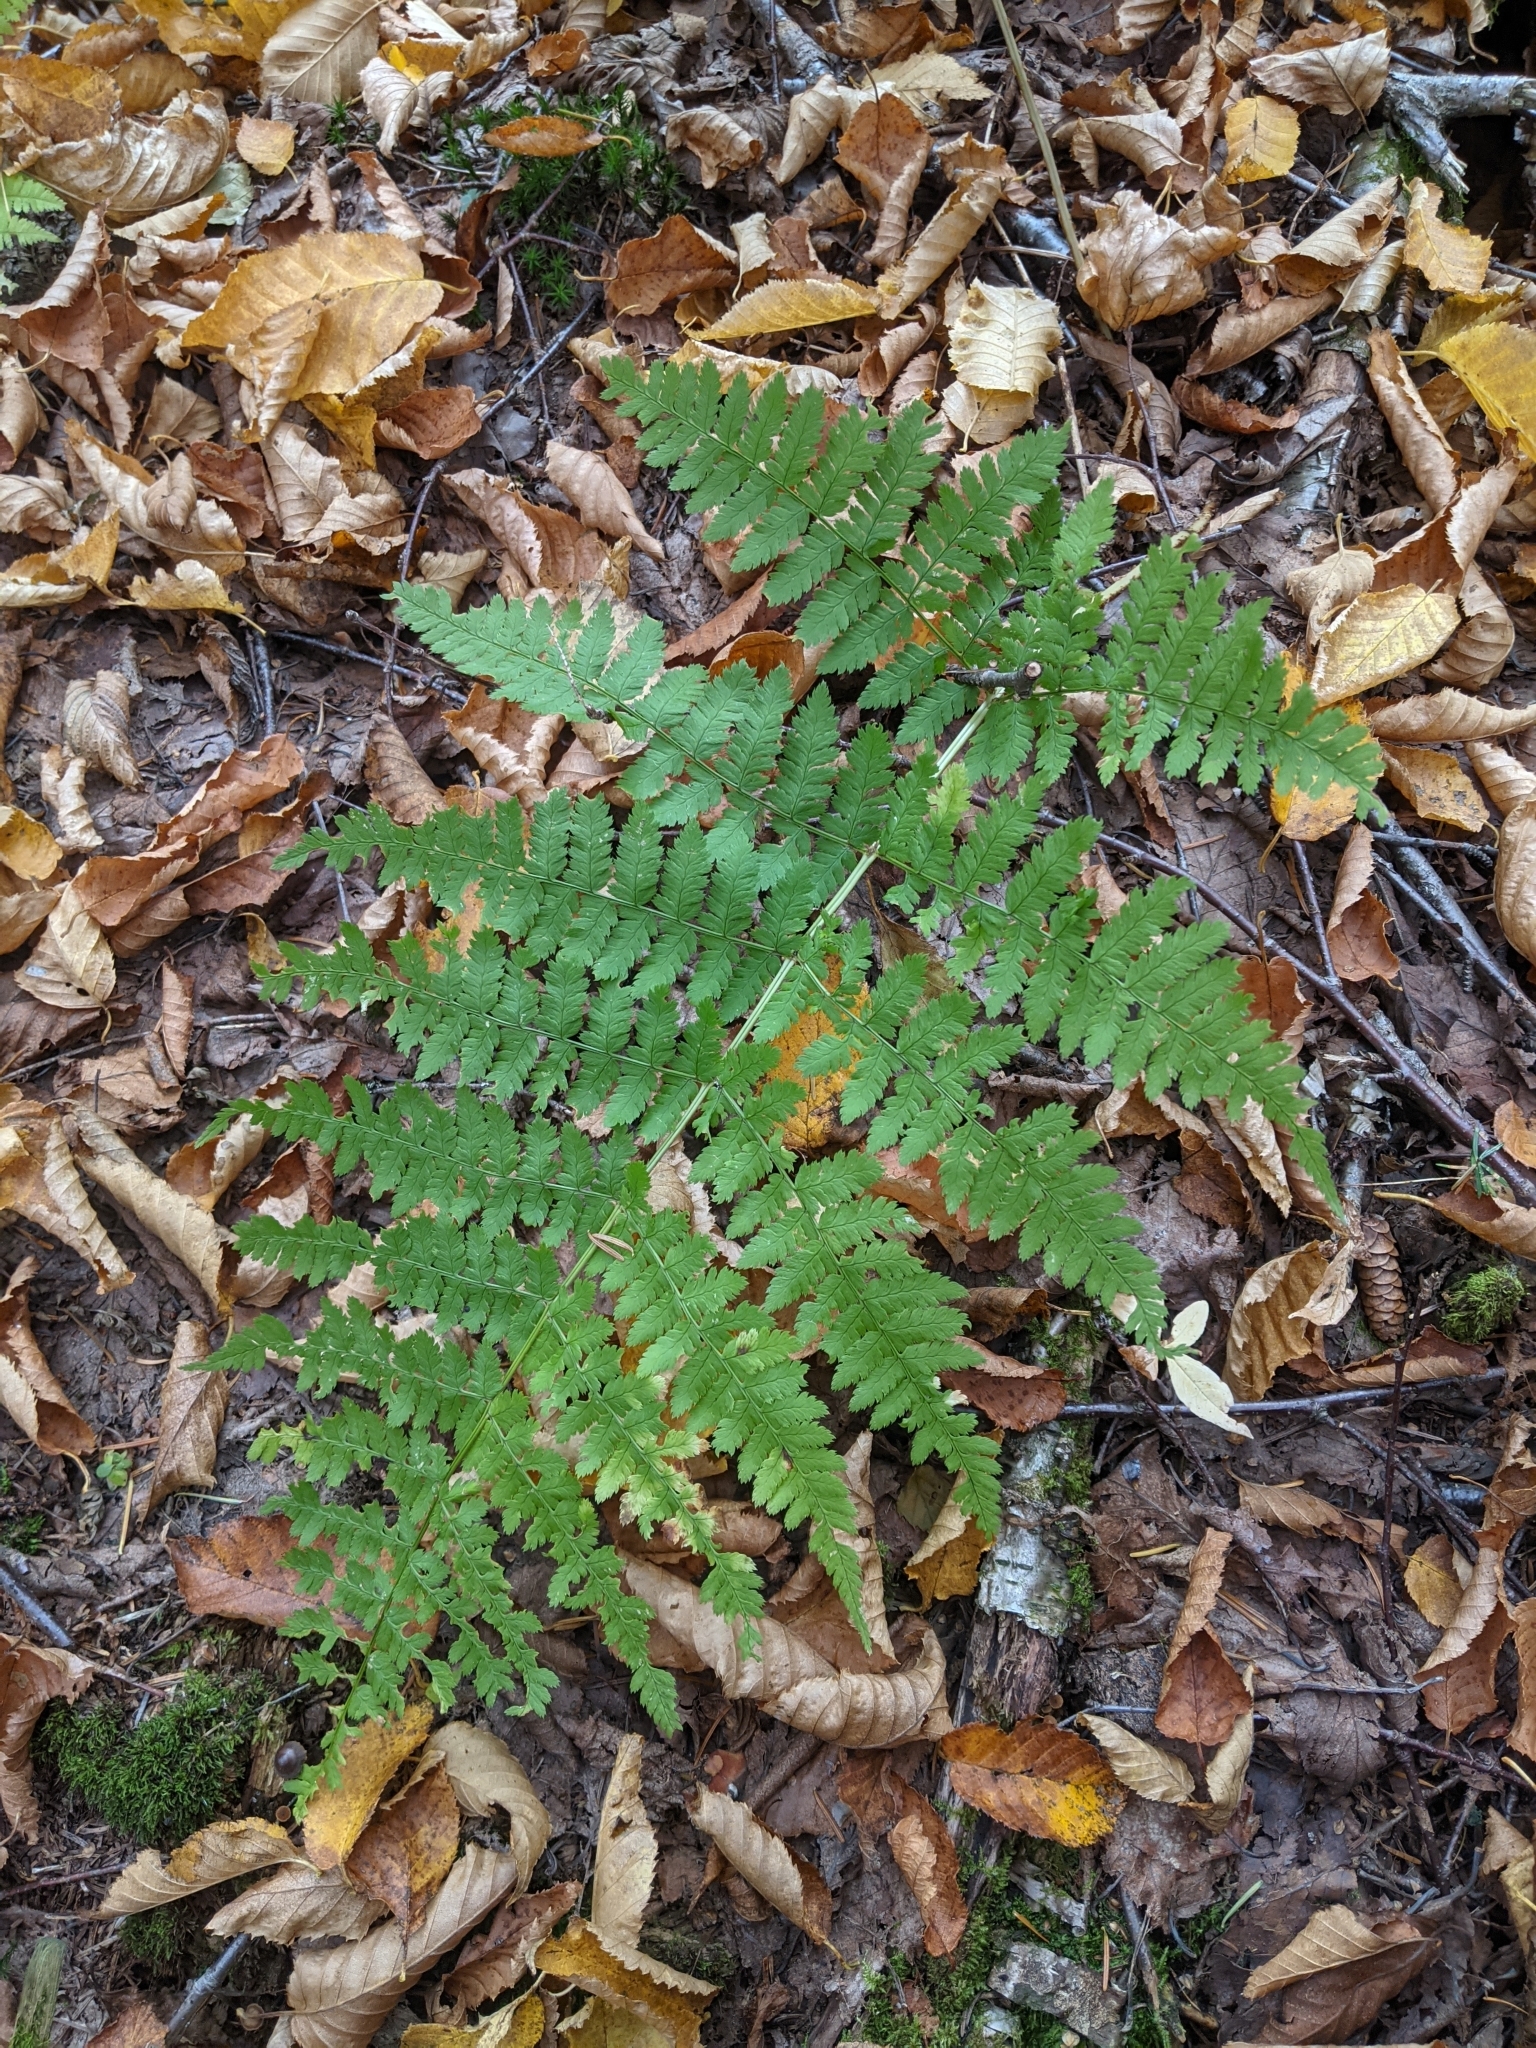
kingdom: Plantae
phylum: Tracheophyta
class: Polypodiopsida
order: Polypodiales
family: Dryopteridaceae
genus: Dryopteris
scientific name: Dryopteris campyloptera
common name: Mountain wood fern
